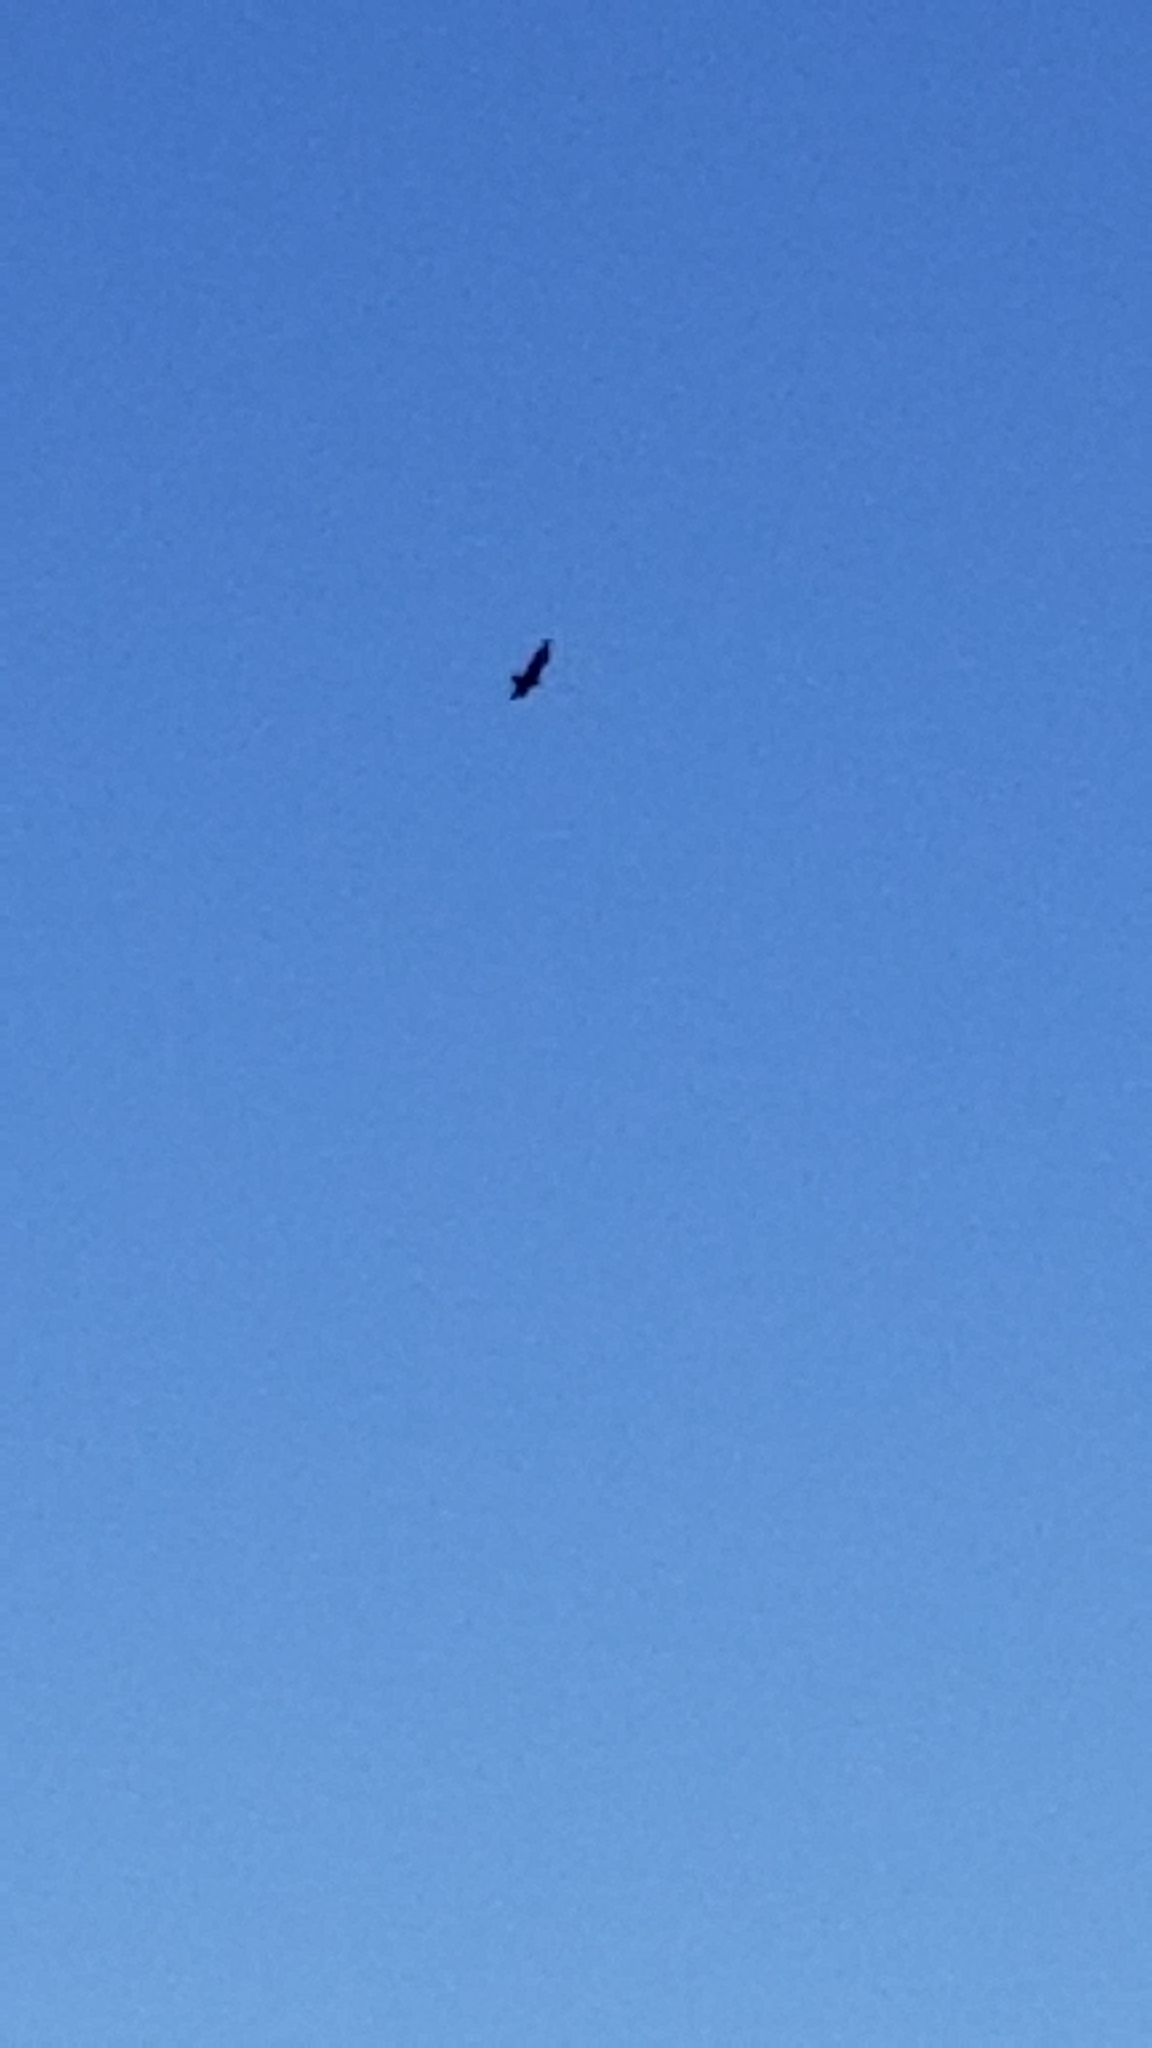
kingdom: Animalia
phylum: Chordata
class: Aves
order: Accipitriformes
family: Cathartidae
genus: Cathartes
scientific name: Cathartes aura
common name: Turkey vulture
